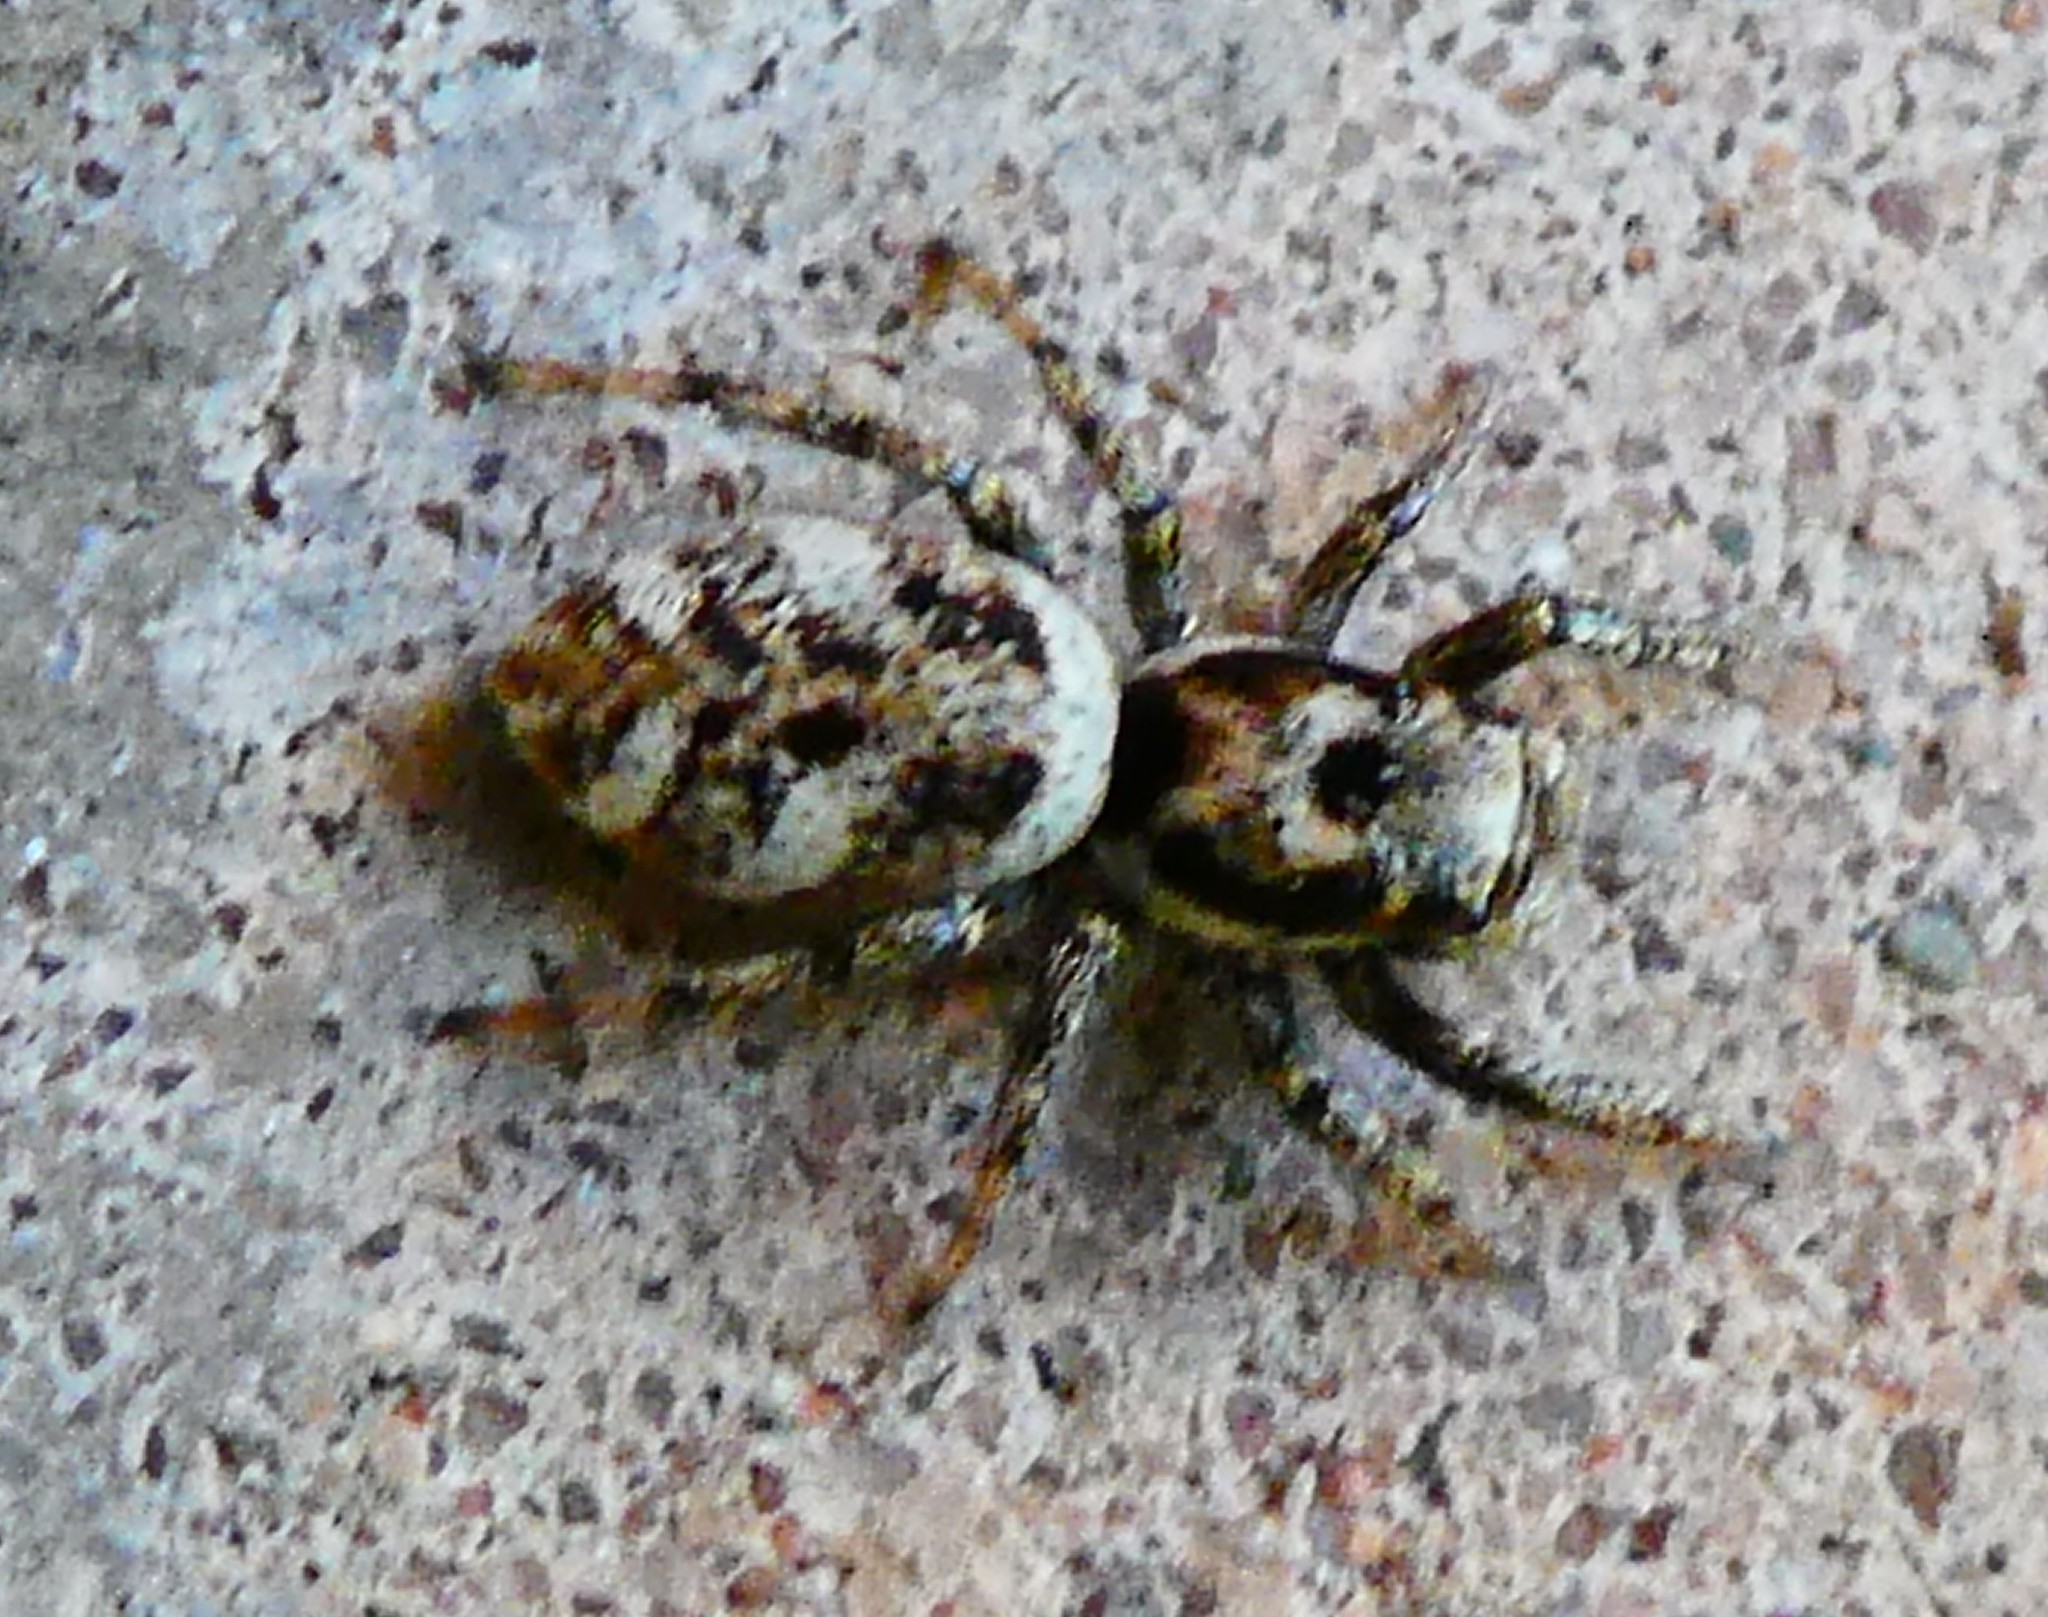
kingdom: Animalia
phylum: Arthropoda
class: Arachnida
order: Araneae
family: Salticidae
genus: Salticus
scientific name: Salticus scenicus
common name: Zebra jumper
